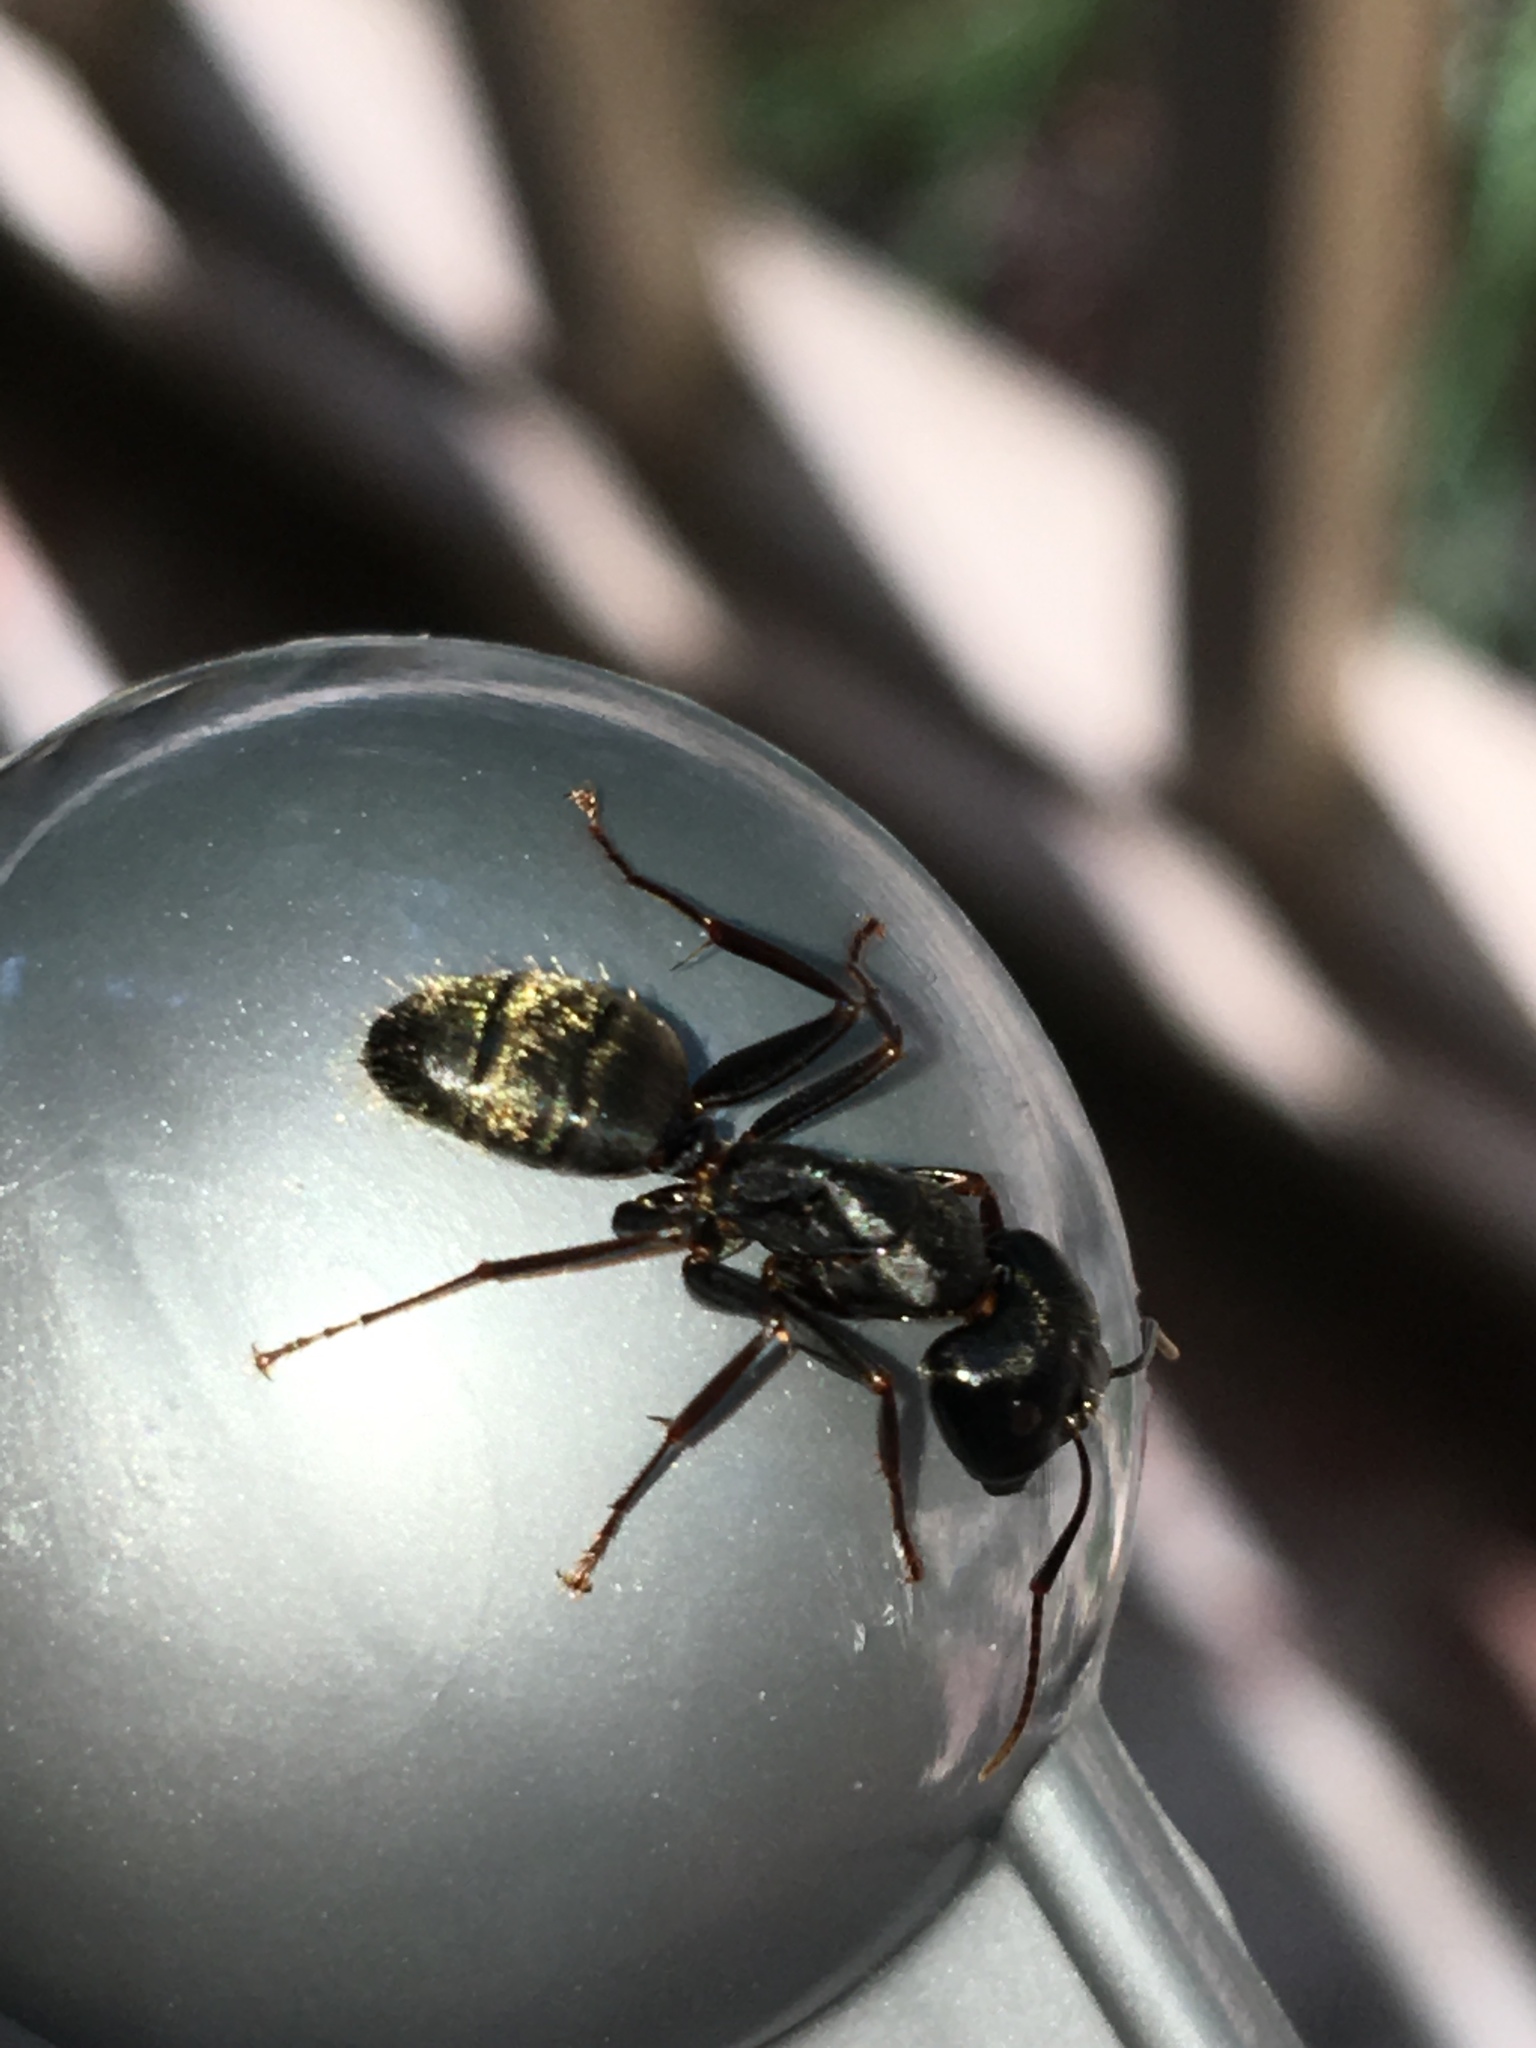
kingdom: Animalia
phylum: Arthropoda
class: Insecta
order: Hymenoptera
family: Formicidae
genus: Camponotus
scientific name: Camponotus pennsylvanicus
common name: Black carpenter ant
